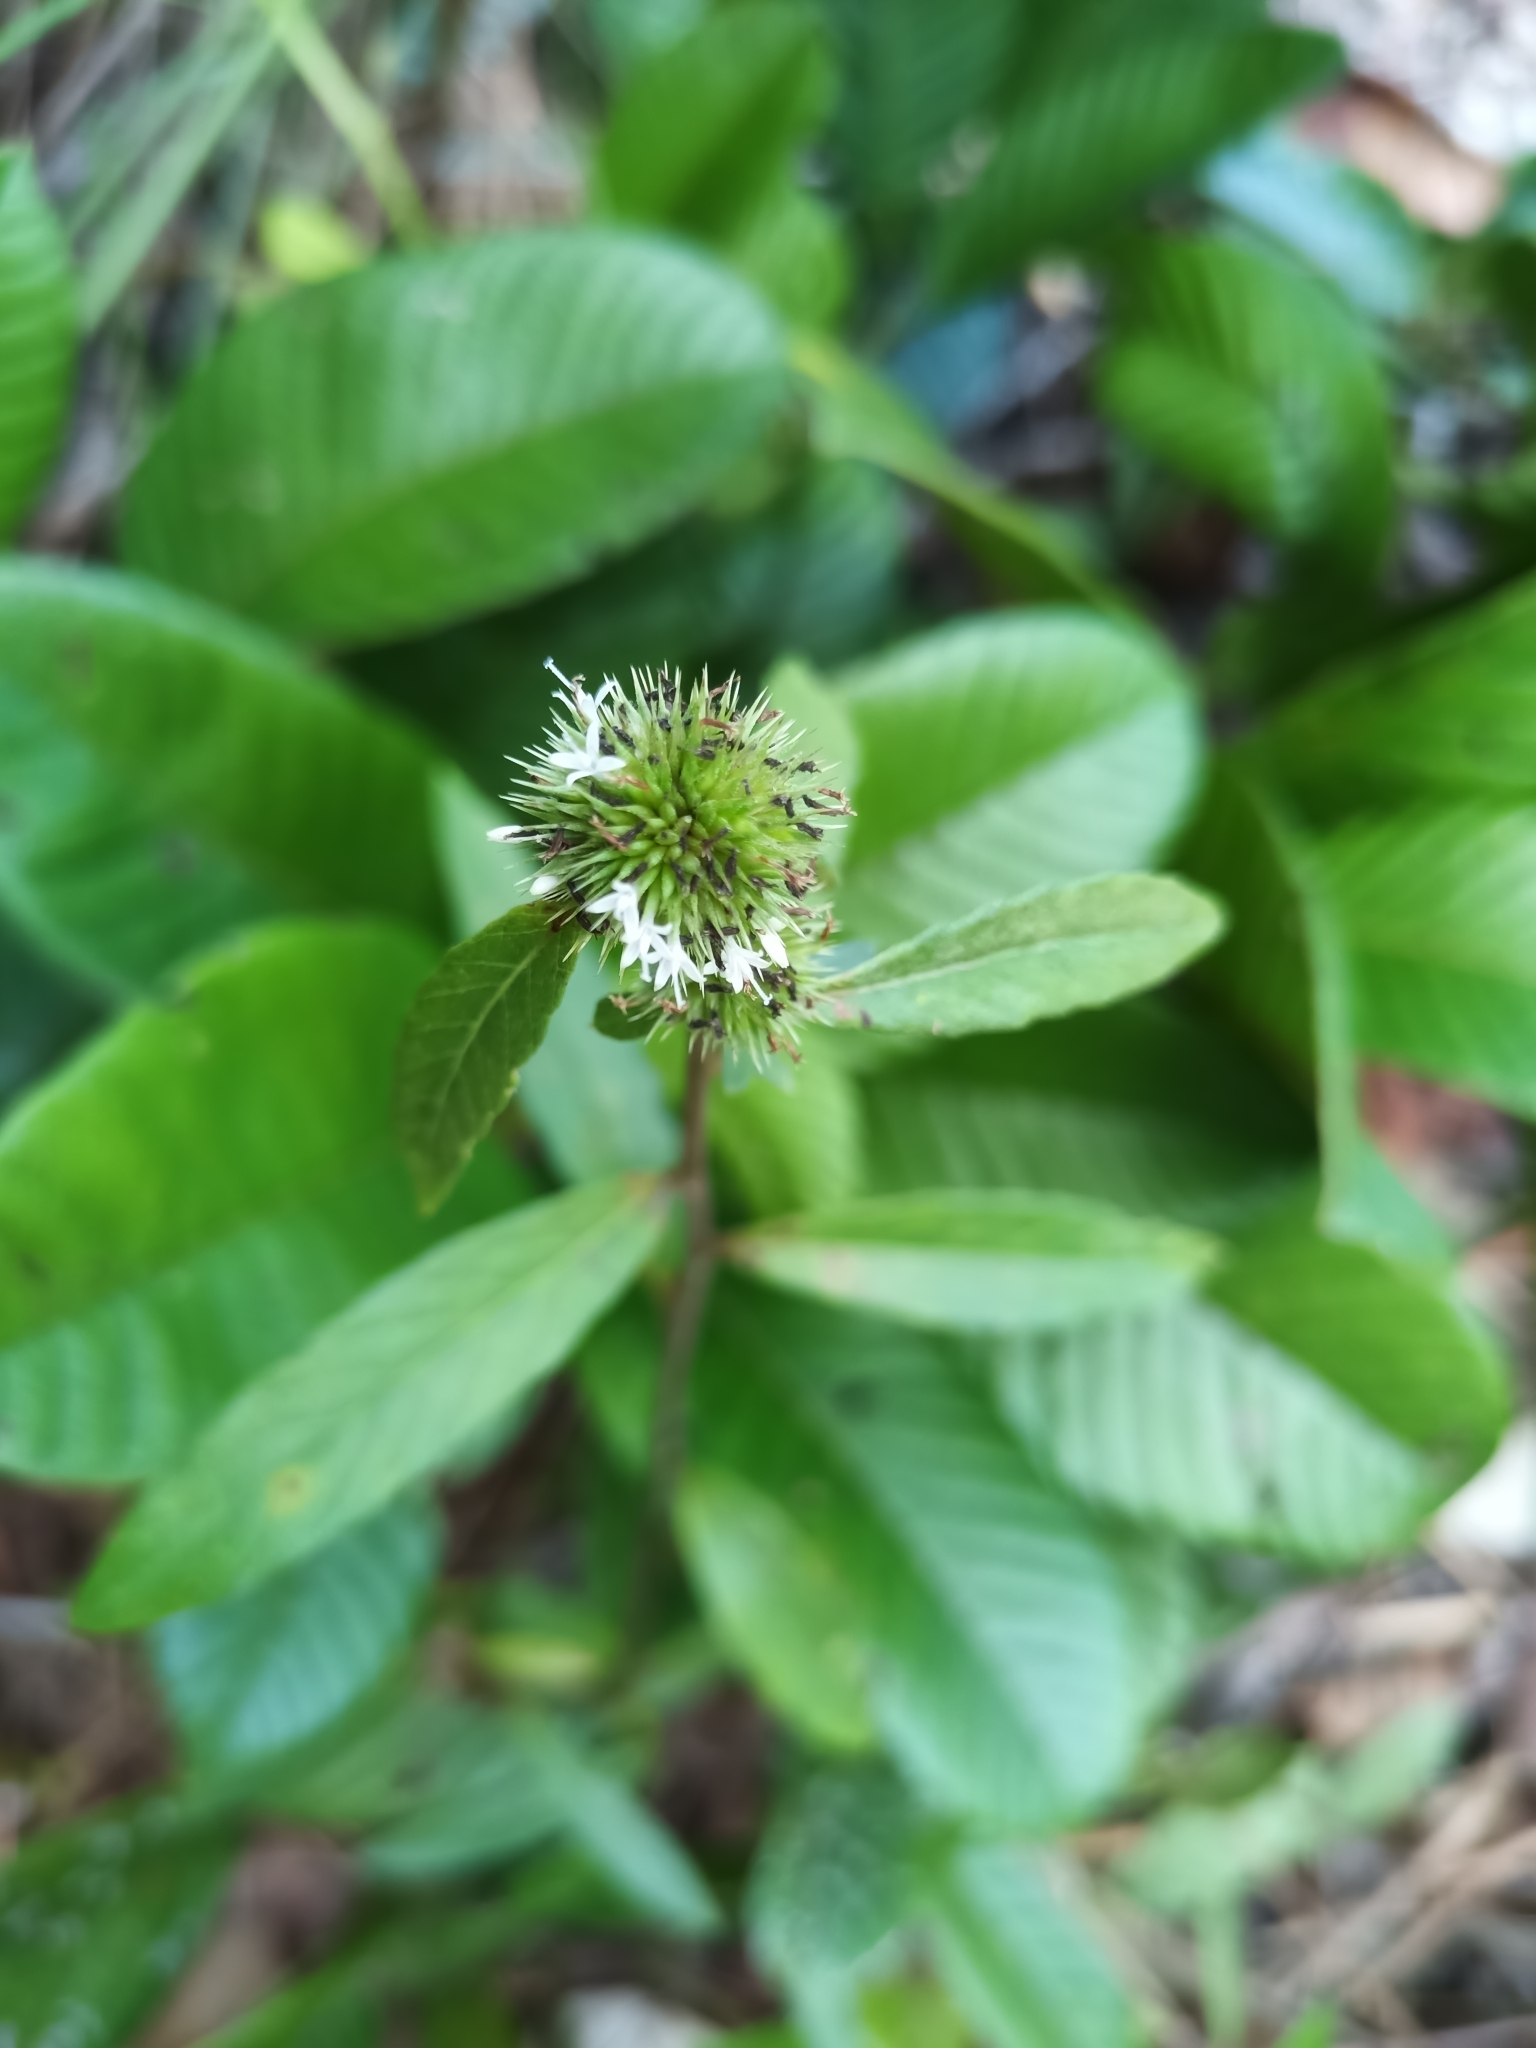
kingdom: Plantae
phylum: Tracheophyta
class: Magnoliopsida
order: Asterales
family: Asteraceae
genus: Rolandra
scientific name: Rolandra fruticosa
